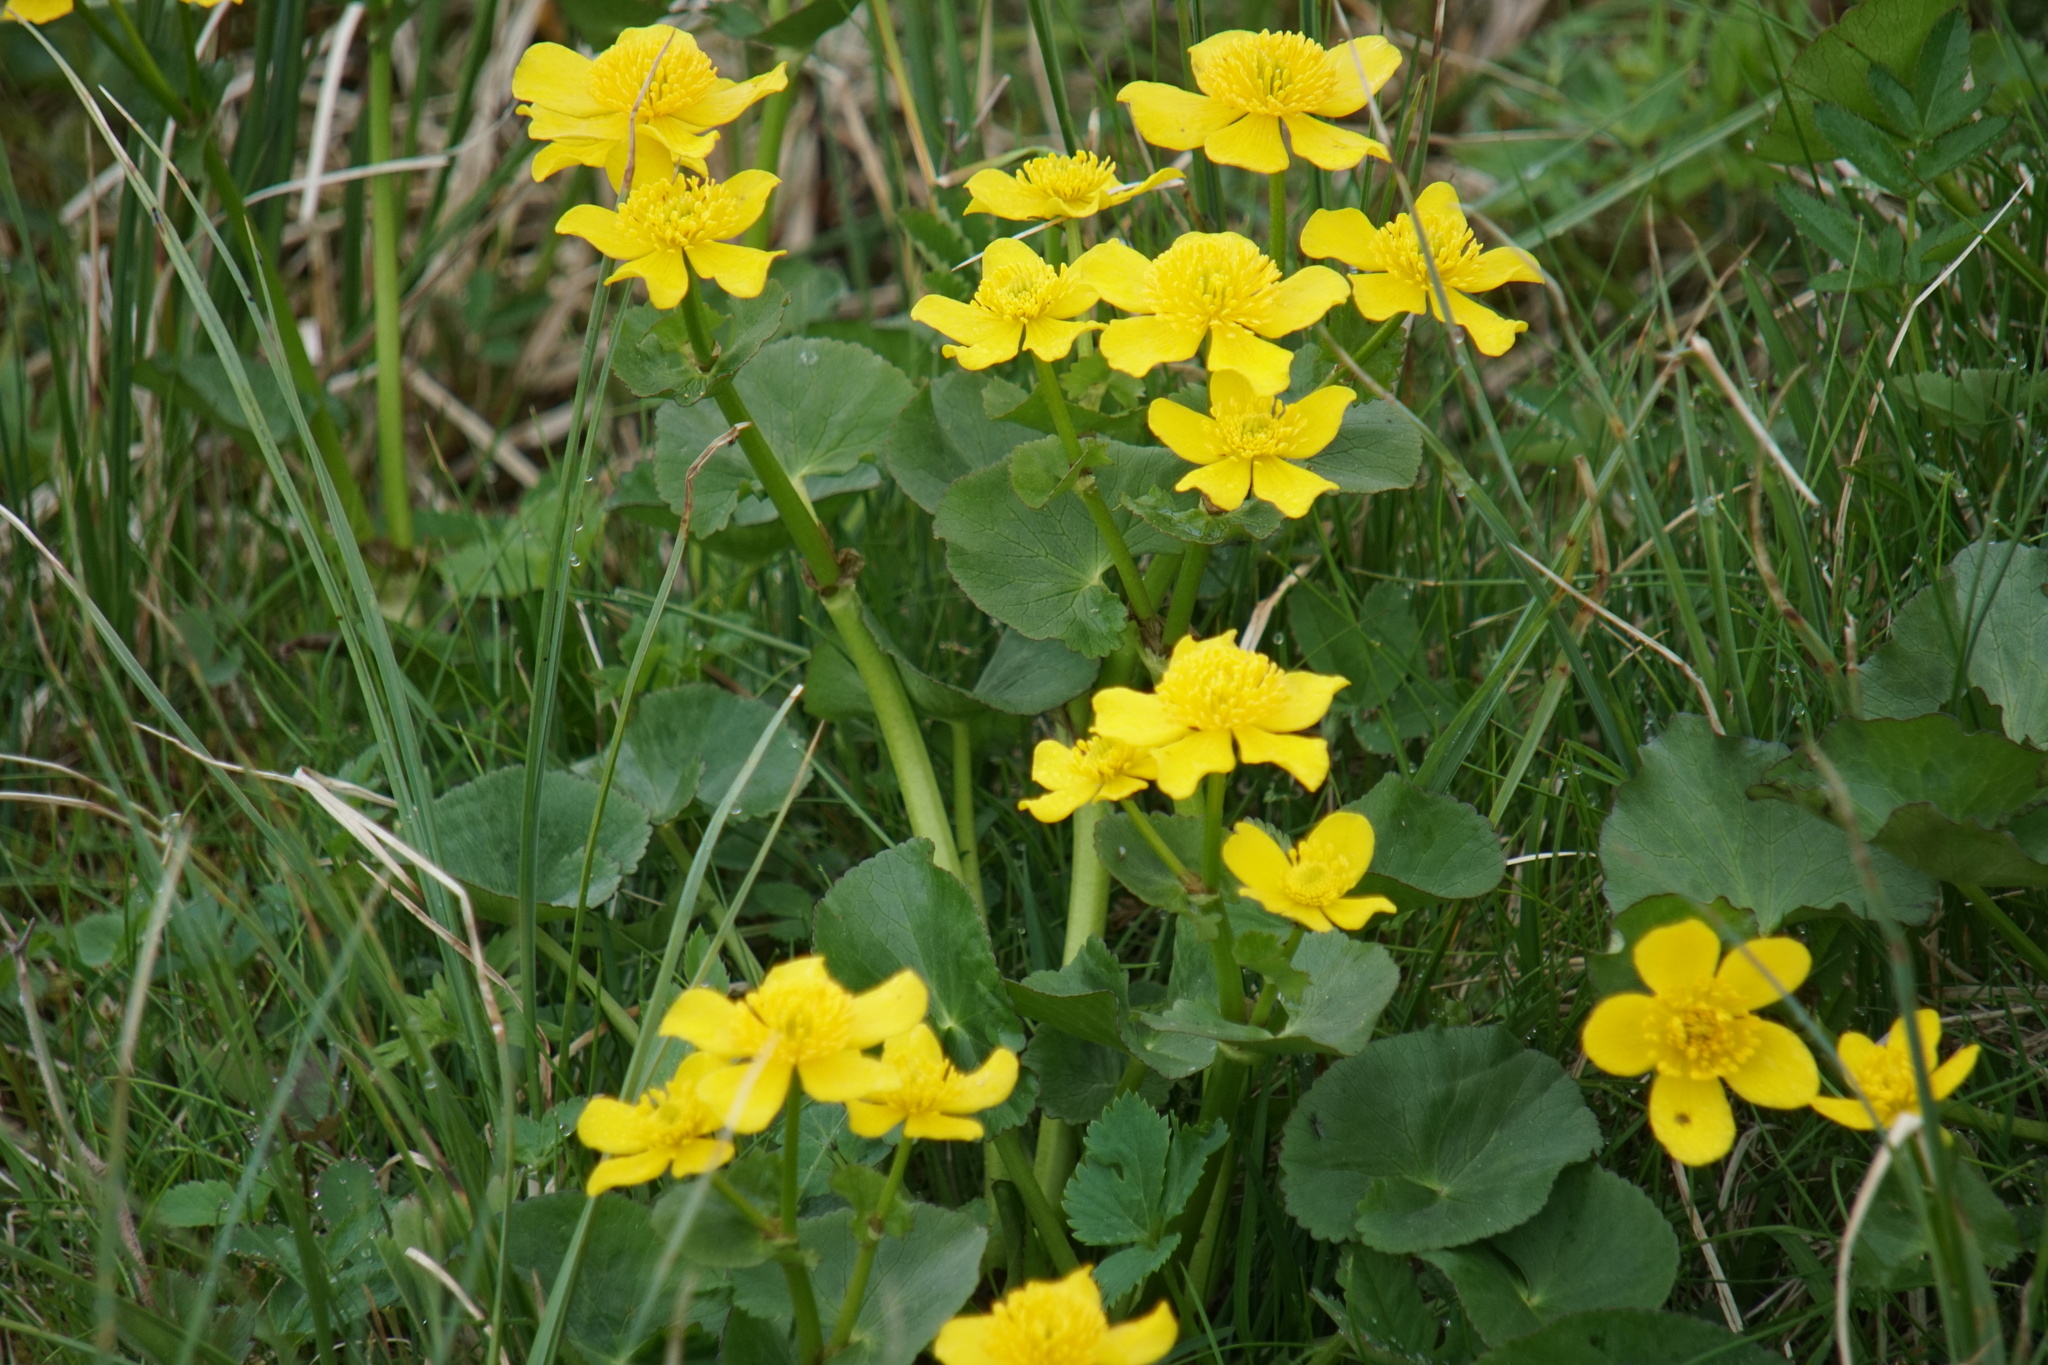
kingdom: Plantae
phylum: Tracheophyta
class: Magnoliopsida
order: Ranunculales
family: Ranunculaceae
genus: Caltha
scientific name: Caltha palustris
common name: Marsh marigold
